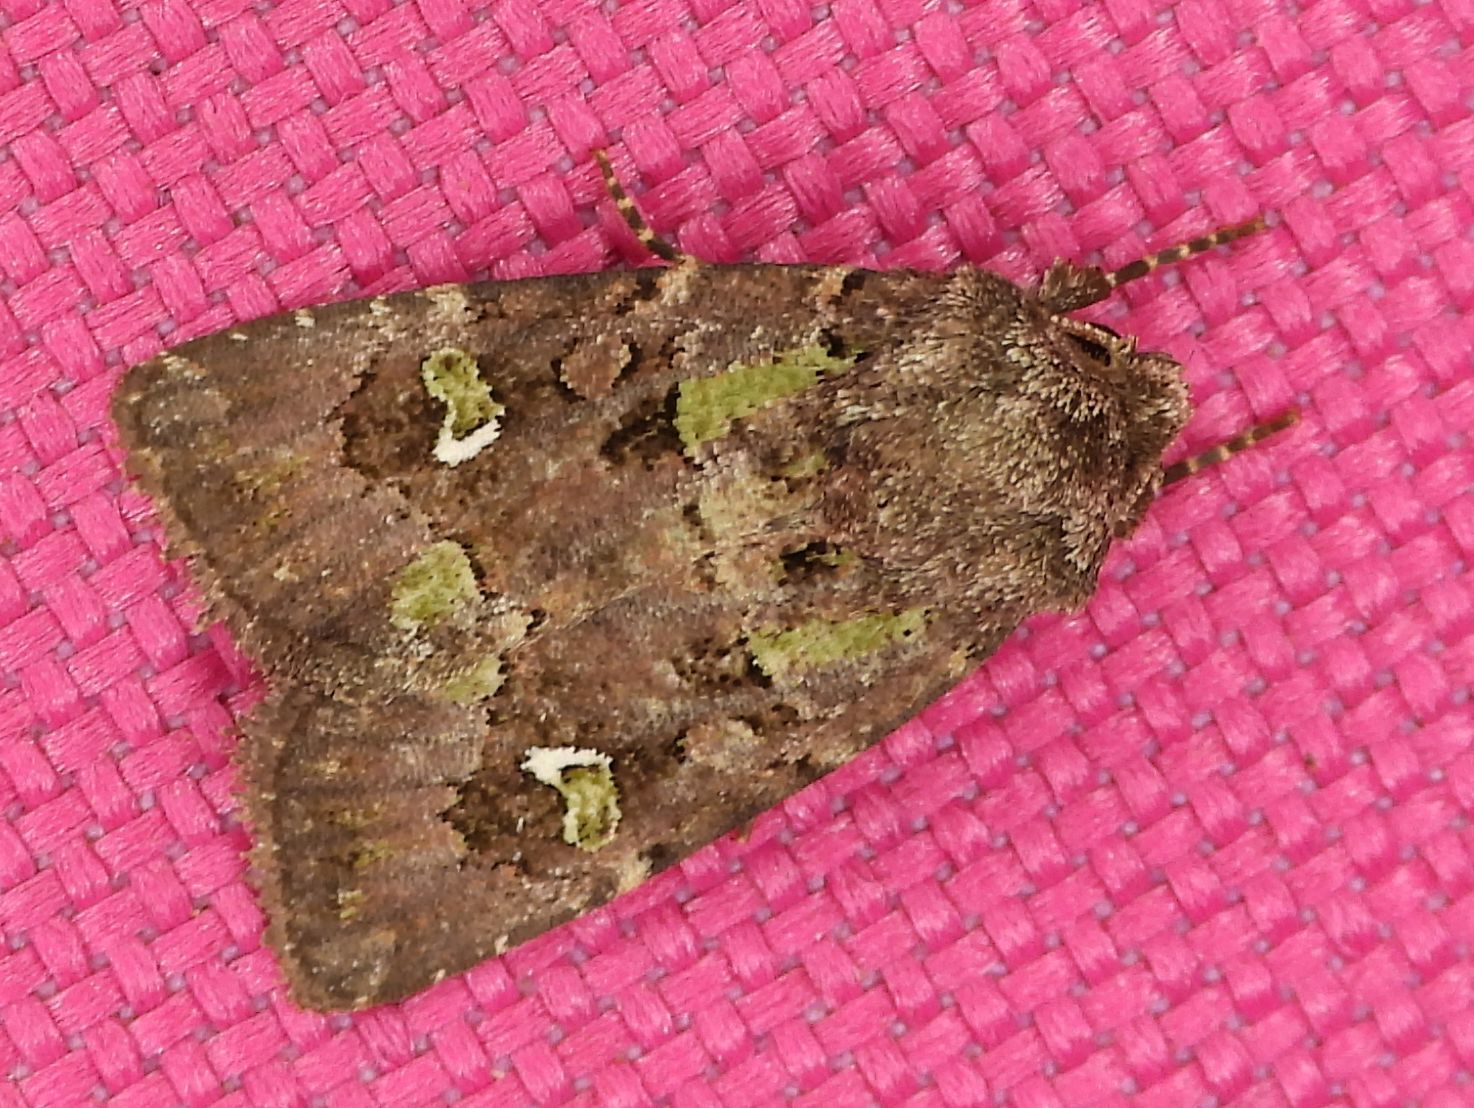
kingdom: Animalia
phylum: Arthropoda
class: Insecta
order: Lepidoptera
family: Noctuidae
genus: Lacinipolia
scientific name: Lacinipolia renigera
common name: Kidney-spotted minor
